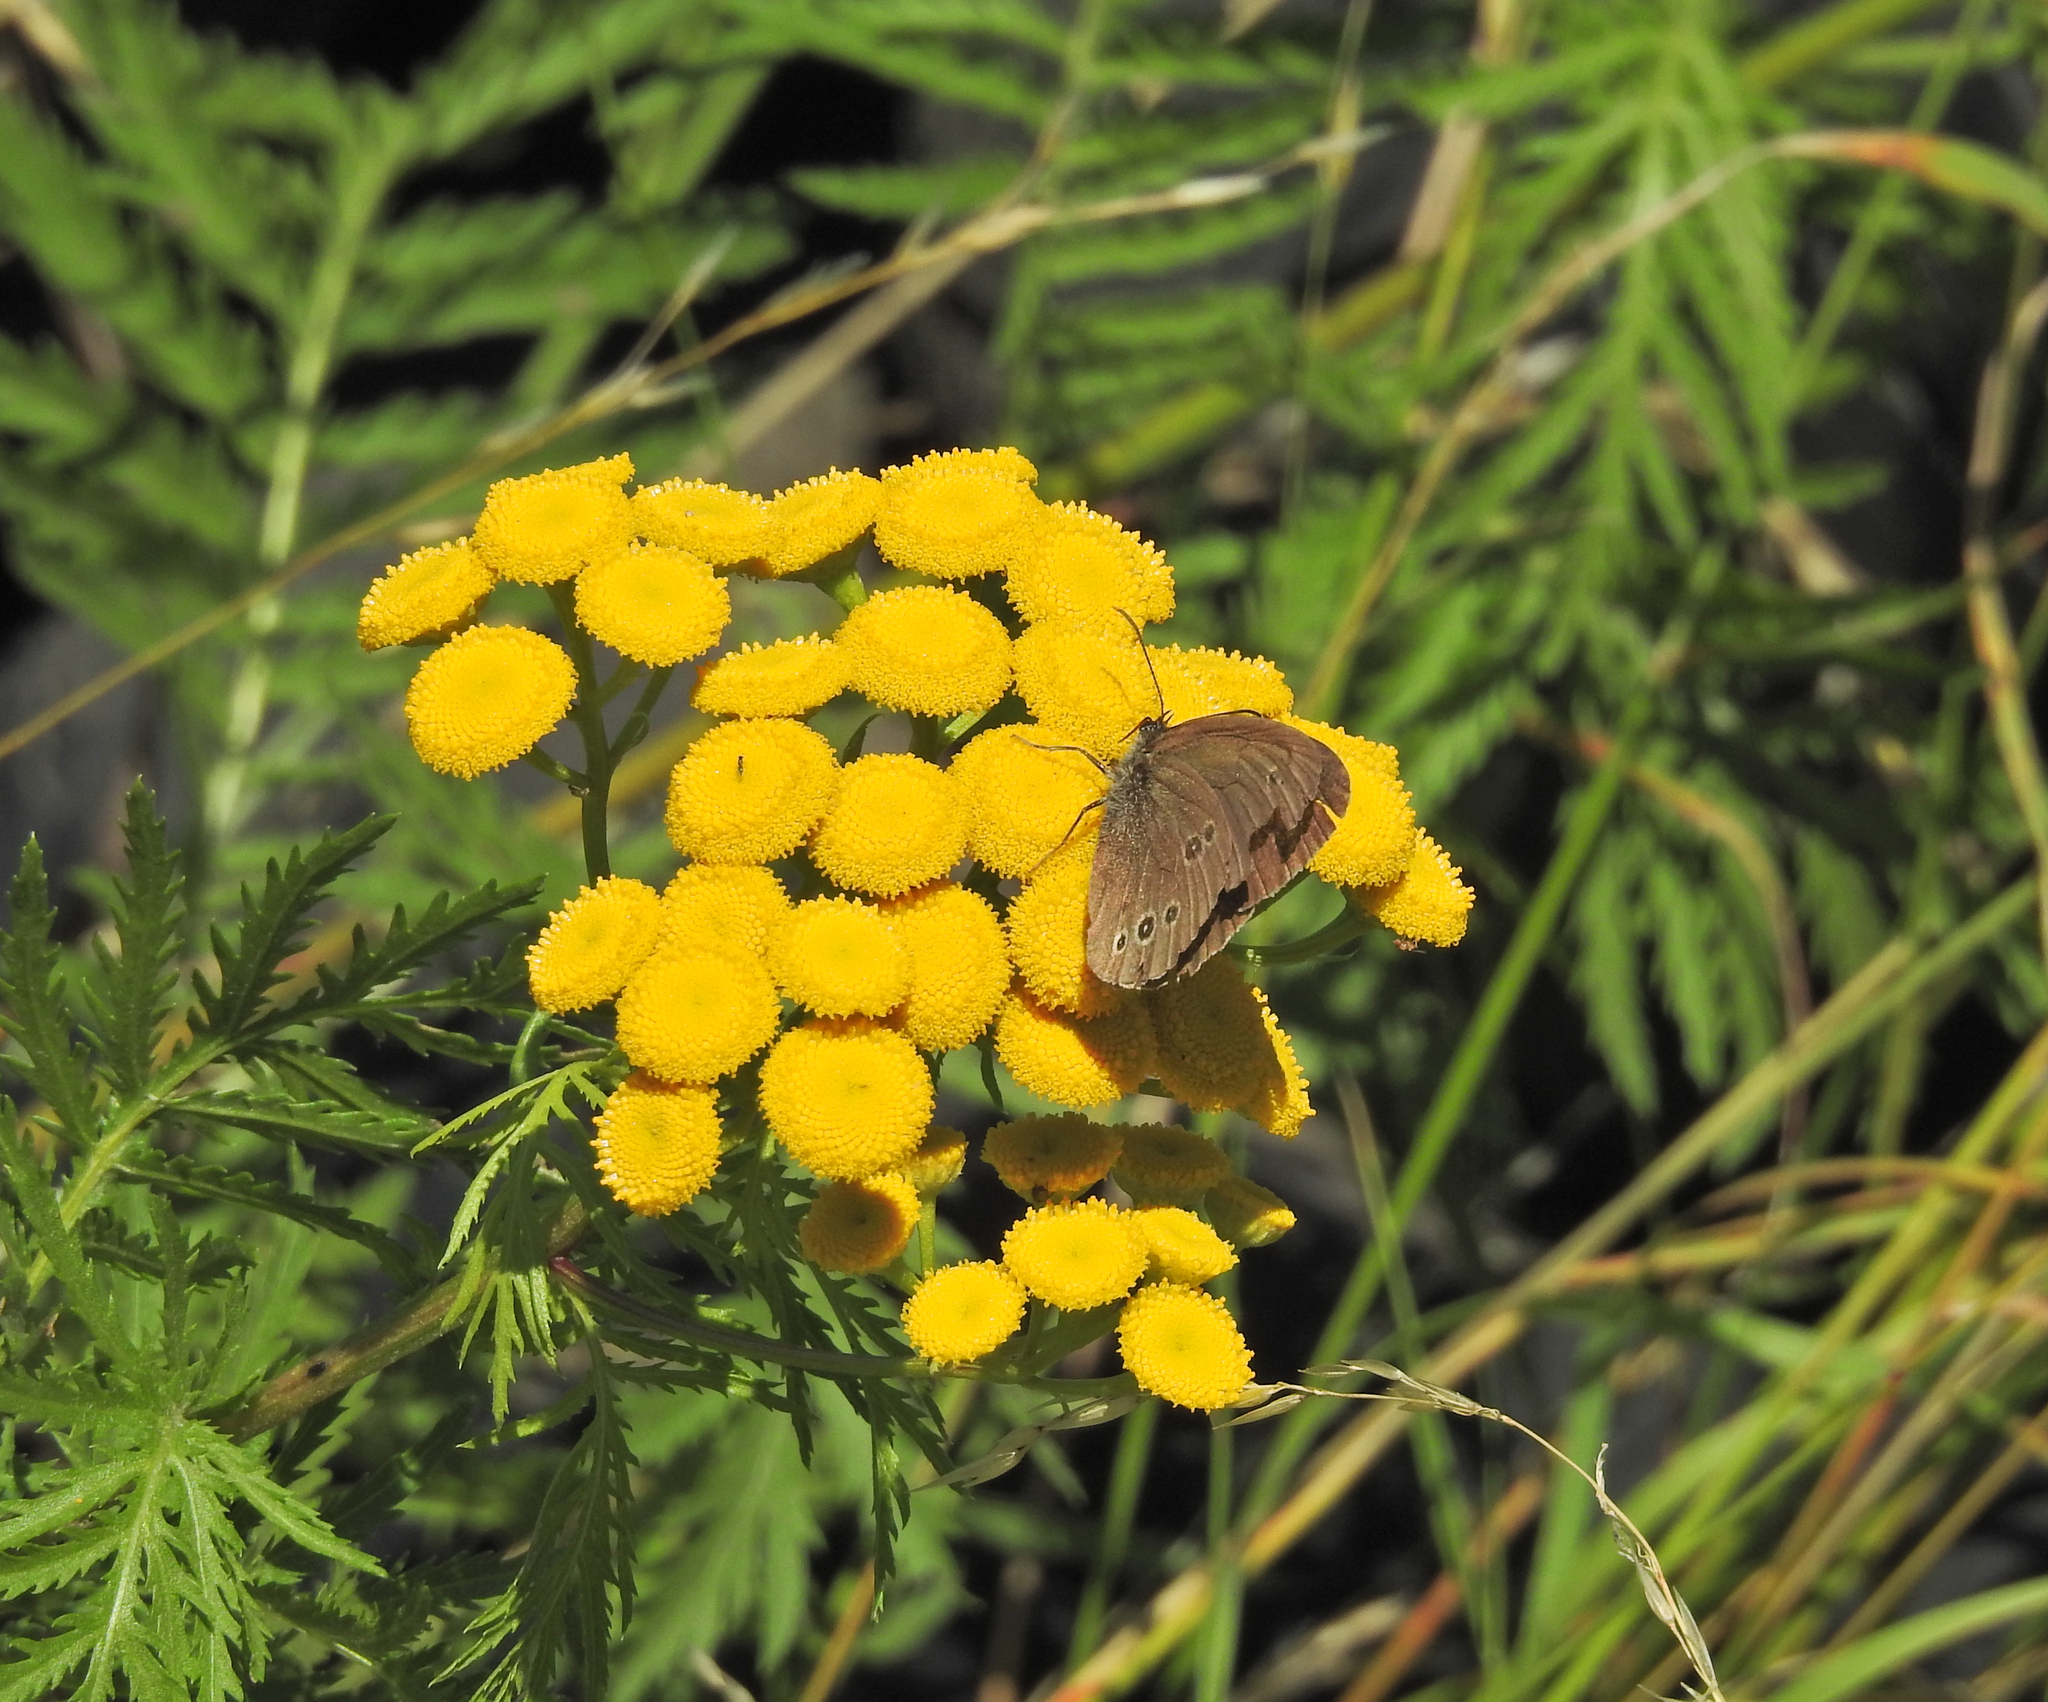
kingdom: Animalia
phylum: Arthropoda
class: Insecta
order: Lepidoptera
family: Nymphalidae
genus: Aphantopus
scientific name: Aphantopus hyperantus
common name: Ringlet
